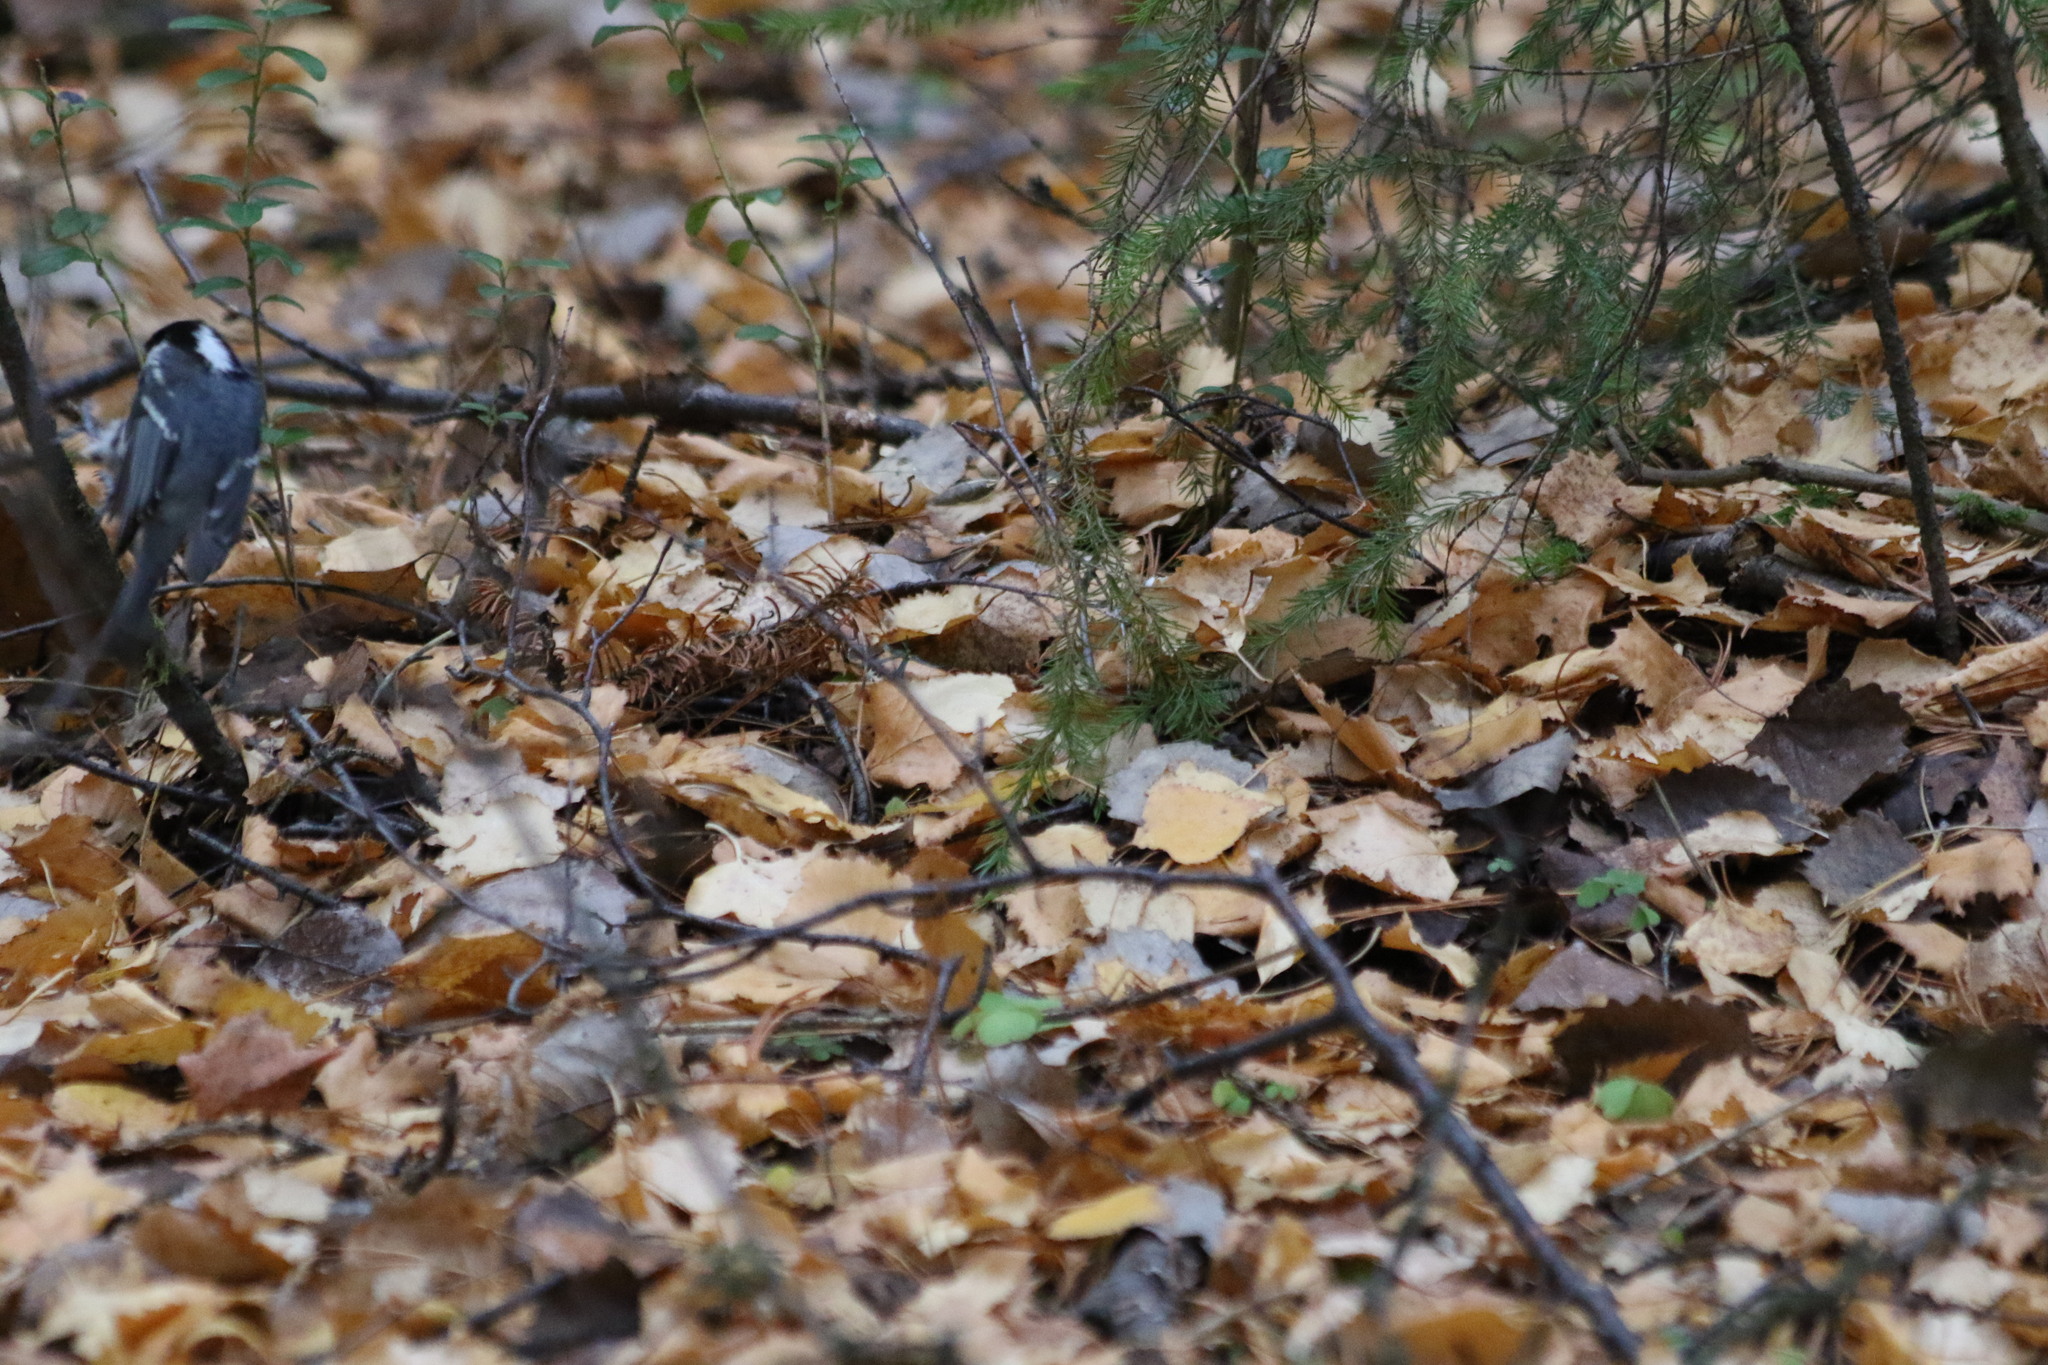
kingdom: Animalia
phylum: Chordata
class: Aves
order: Passeriformes
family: Paridae
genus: Periparus
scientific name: Periparus ater
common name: Coal tit
